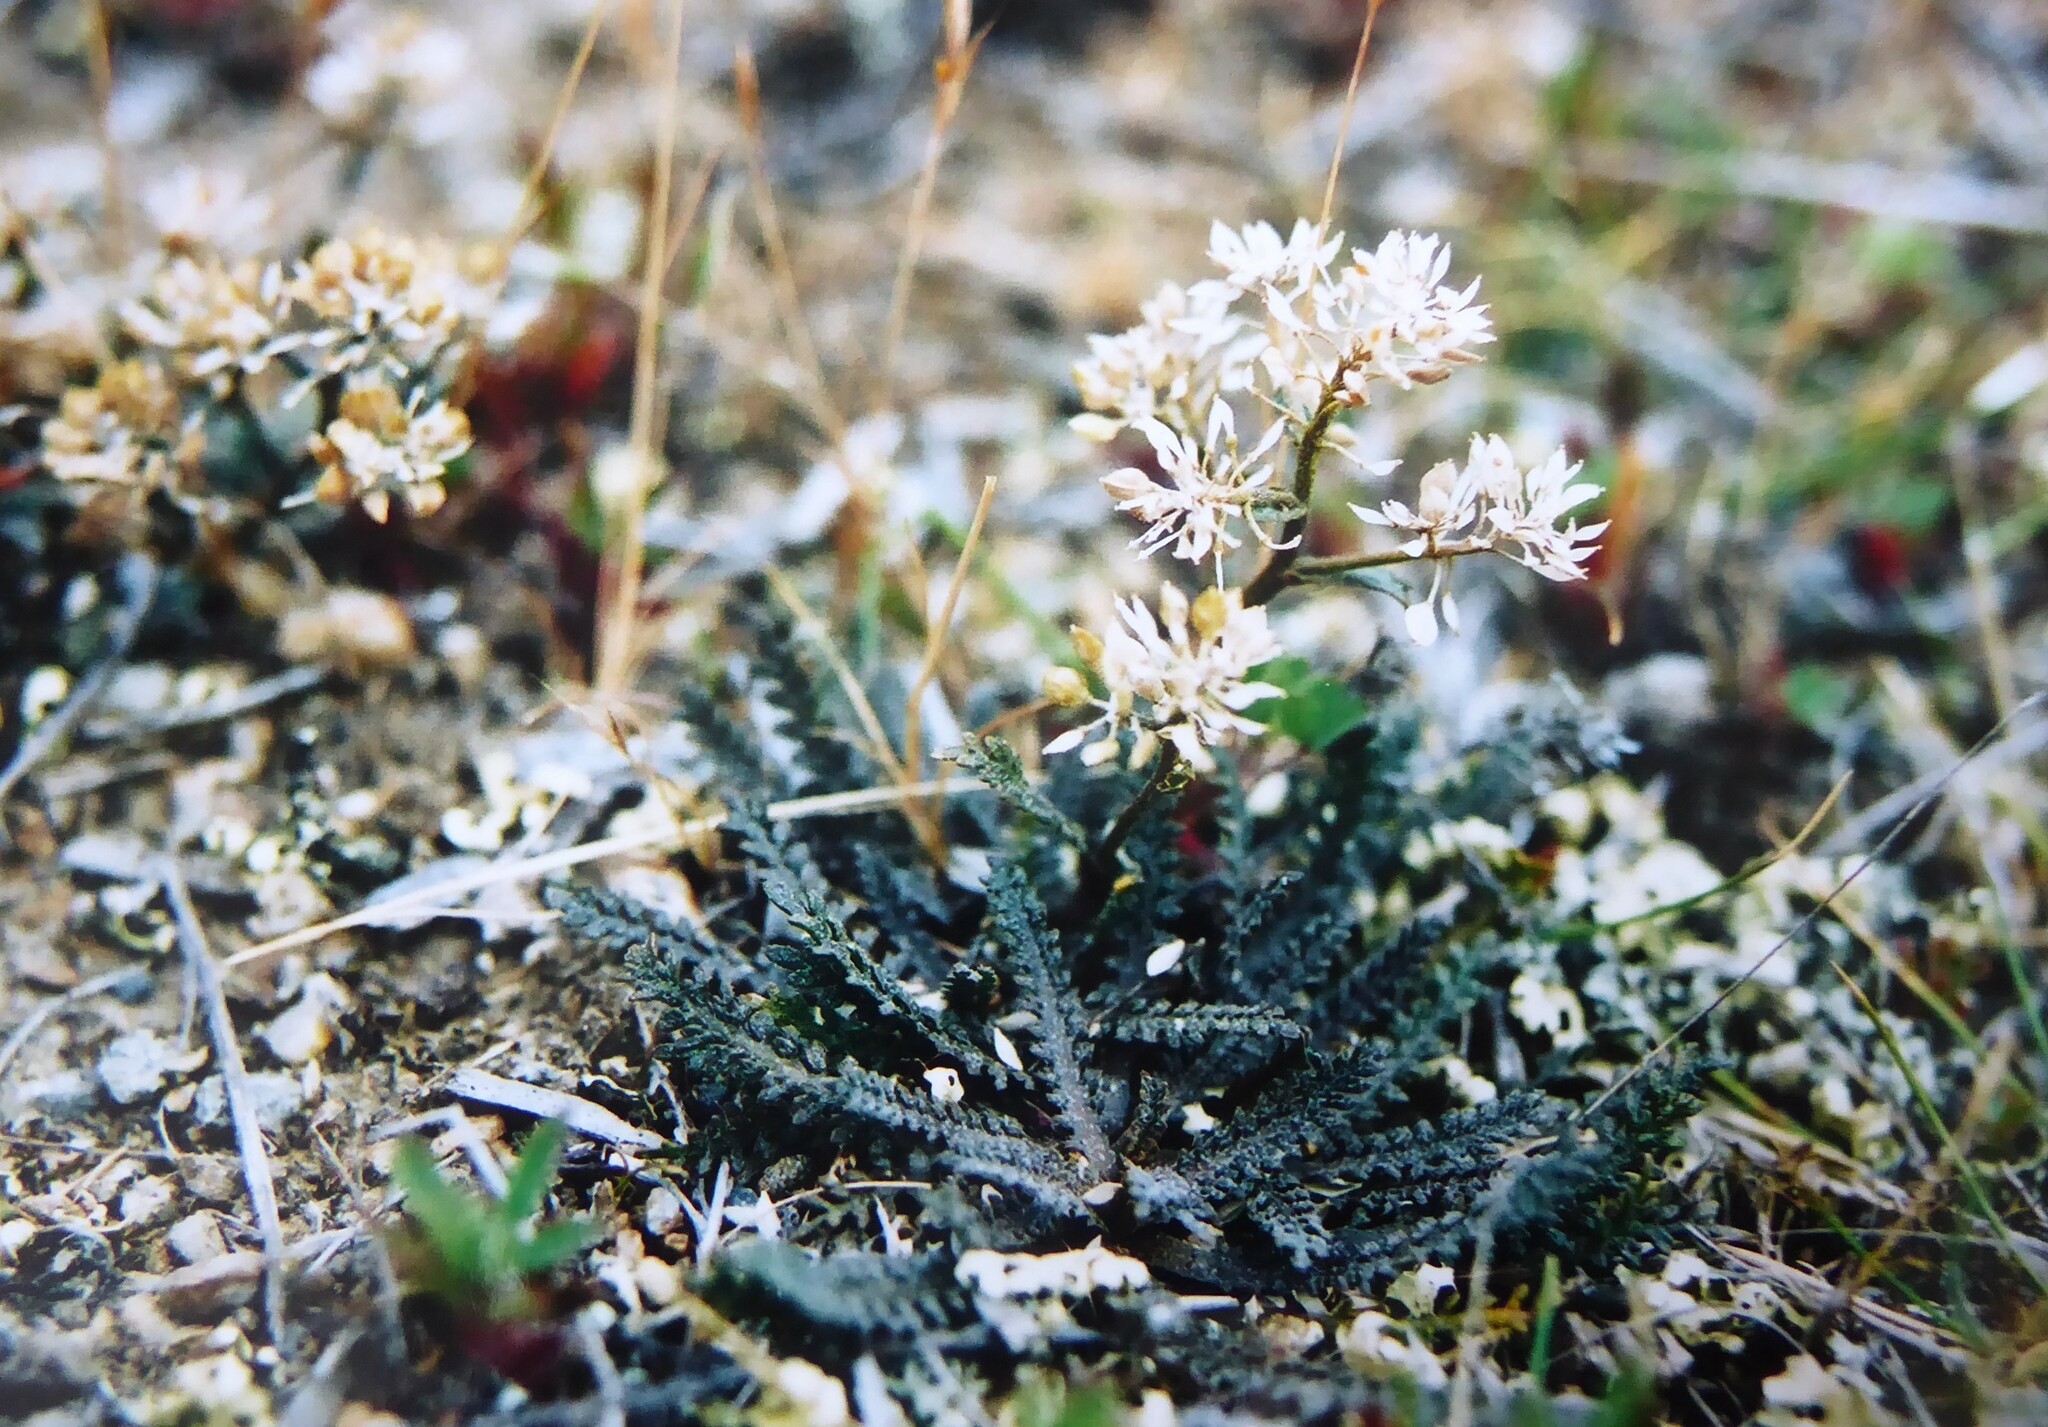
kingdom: Plantae
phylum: Tracheophyta
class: Magnoliopsida
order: Brassicales
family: Brassicaceae
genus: Lepidium
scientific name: Lepidium sisymbrioides
